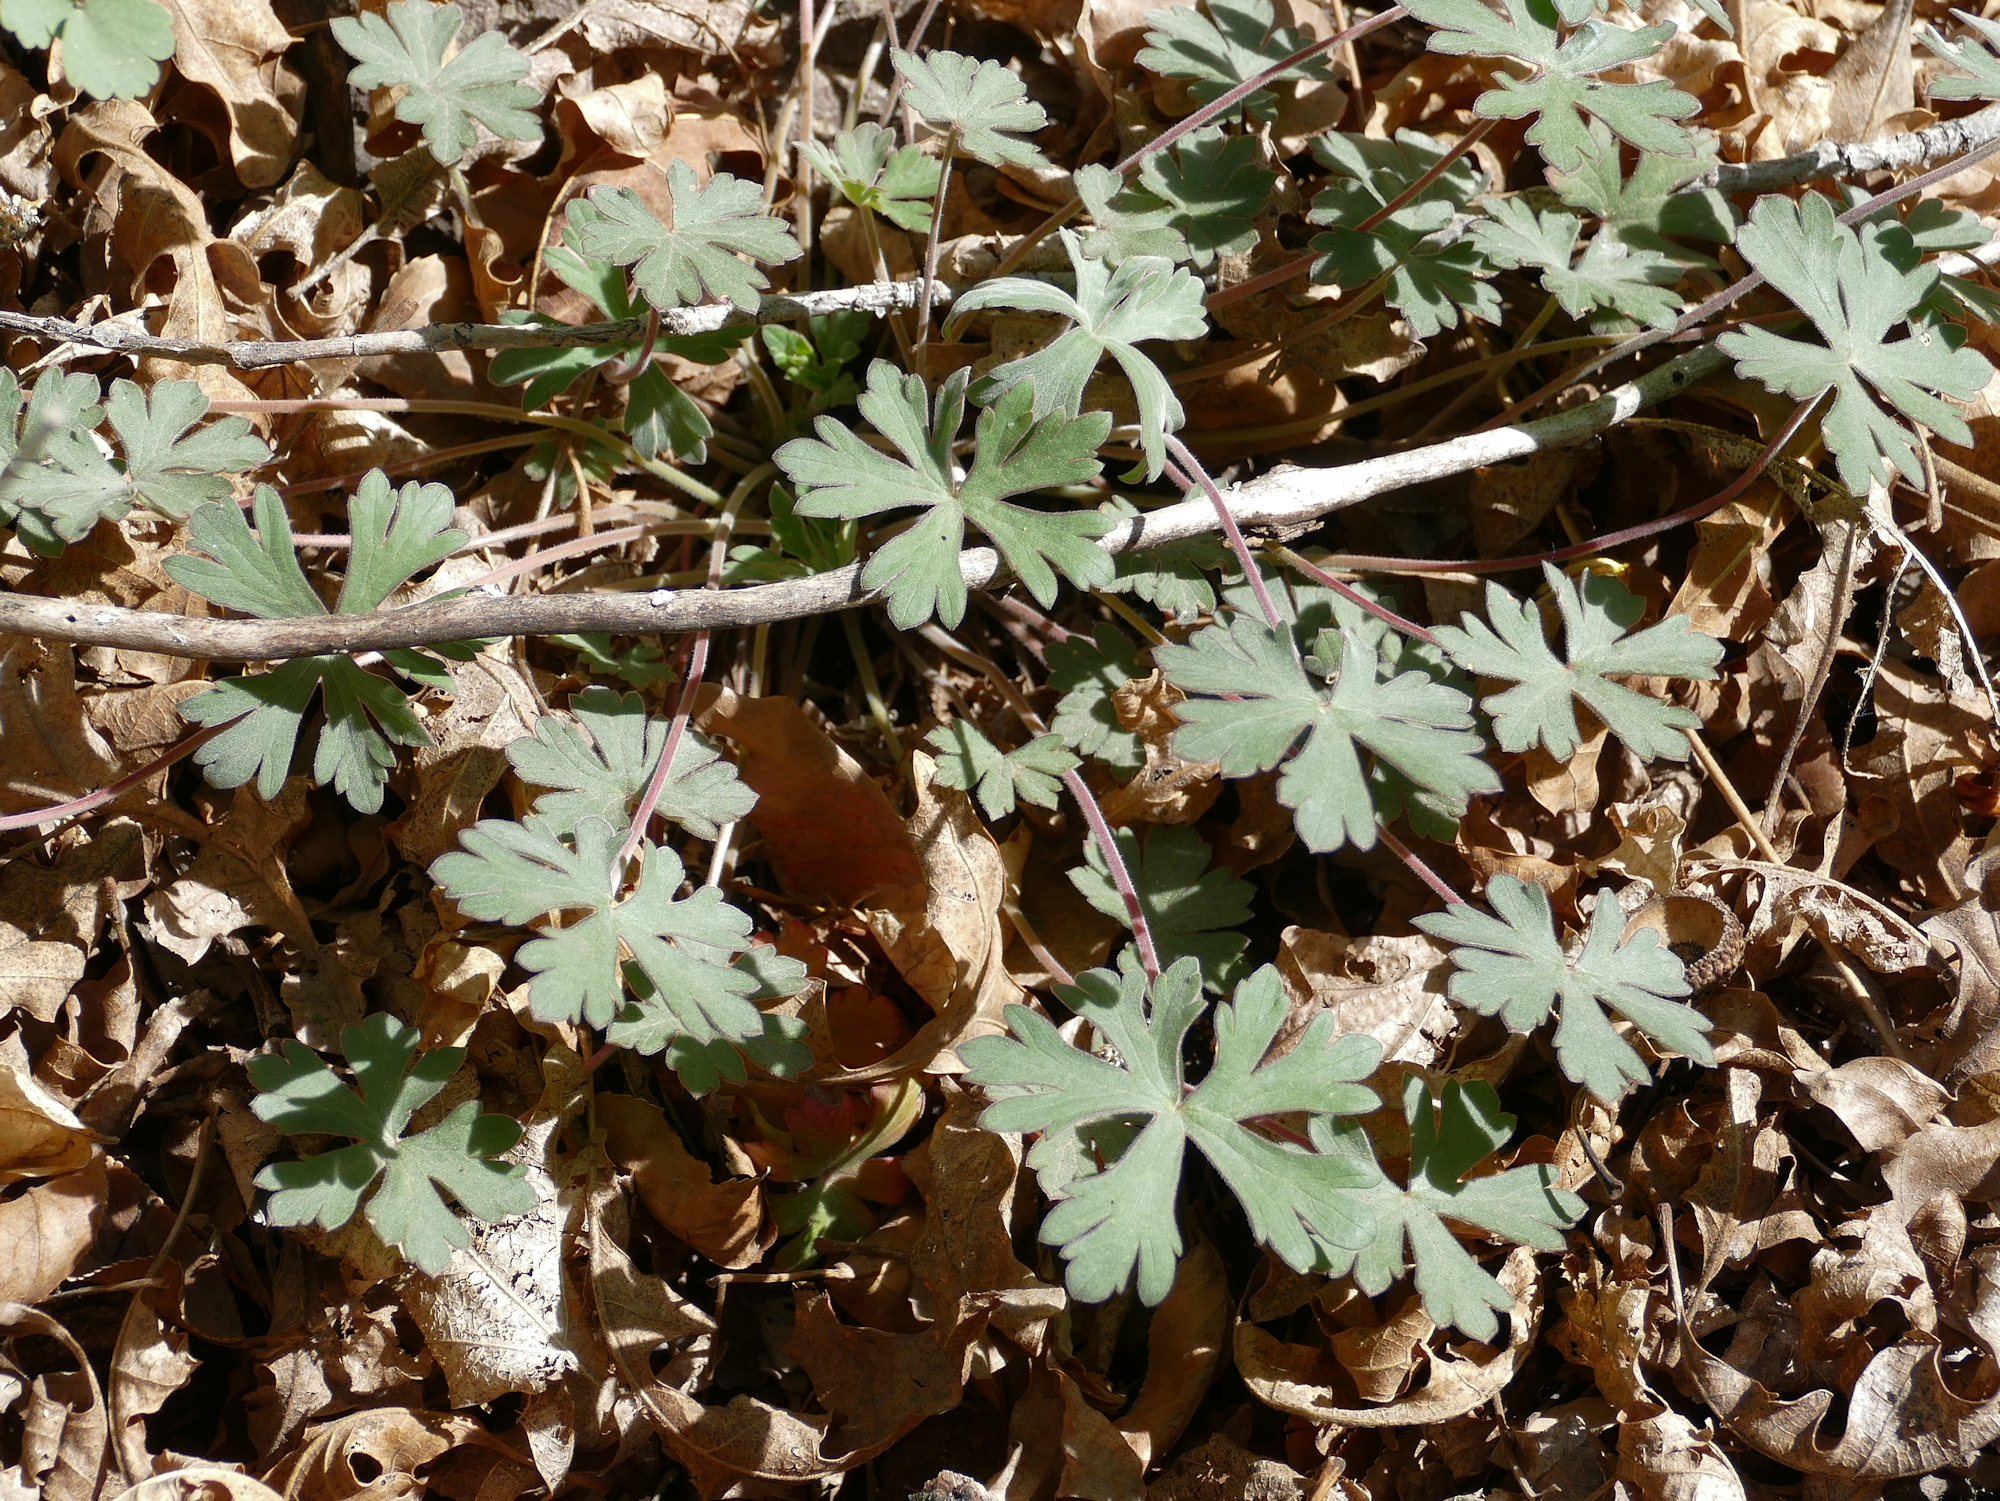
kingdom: Plantae
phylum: Tracheophyta
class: Magnoliopsida
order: Geraniales
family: Geraniaceae
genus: Geranium
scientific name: Geranium caespitosum
